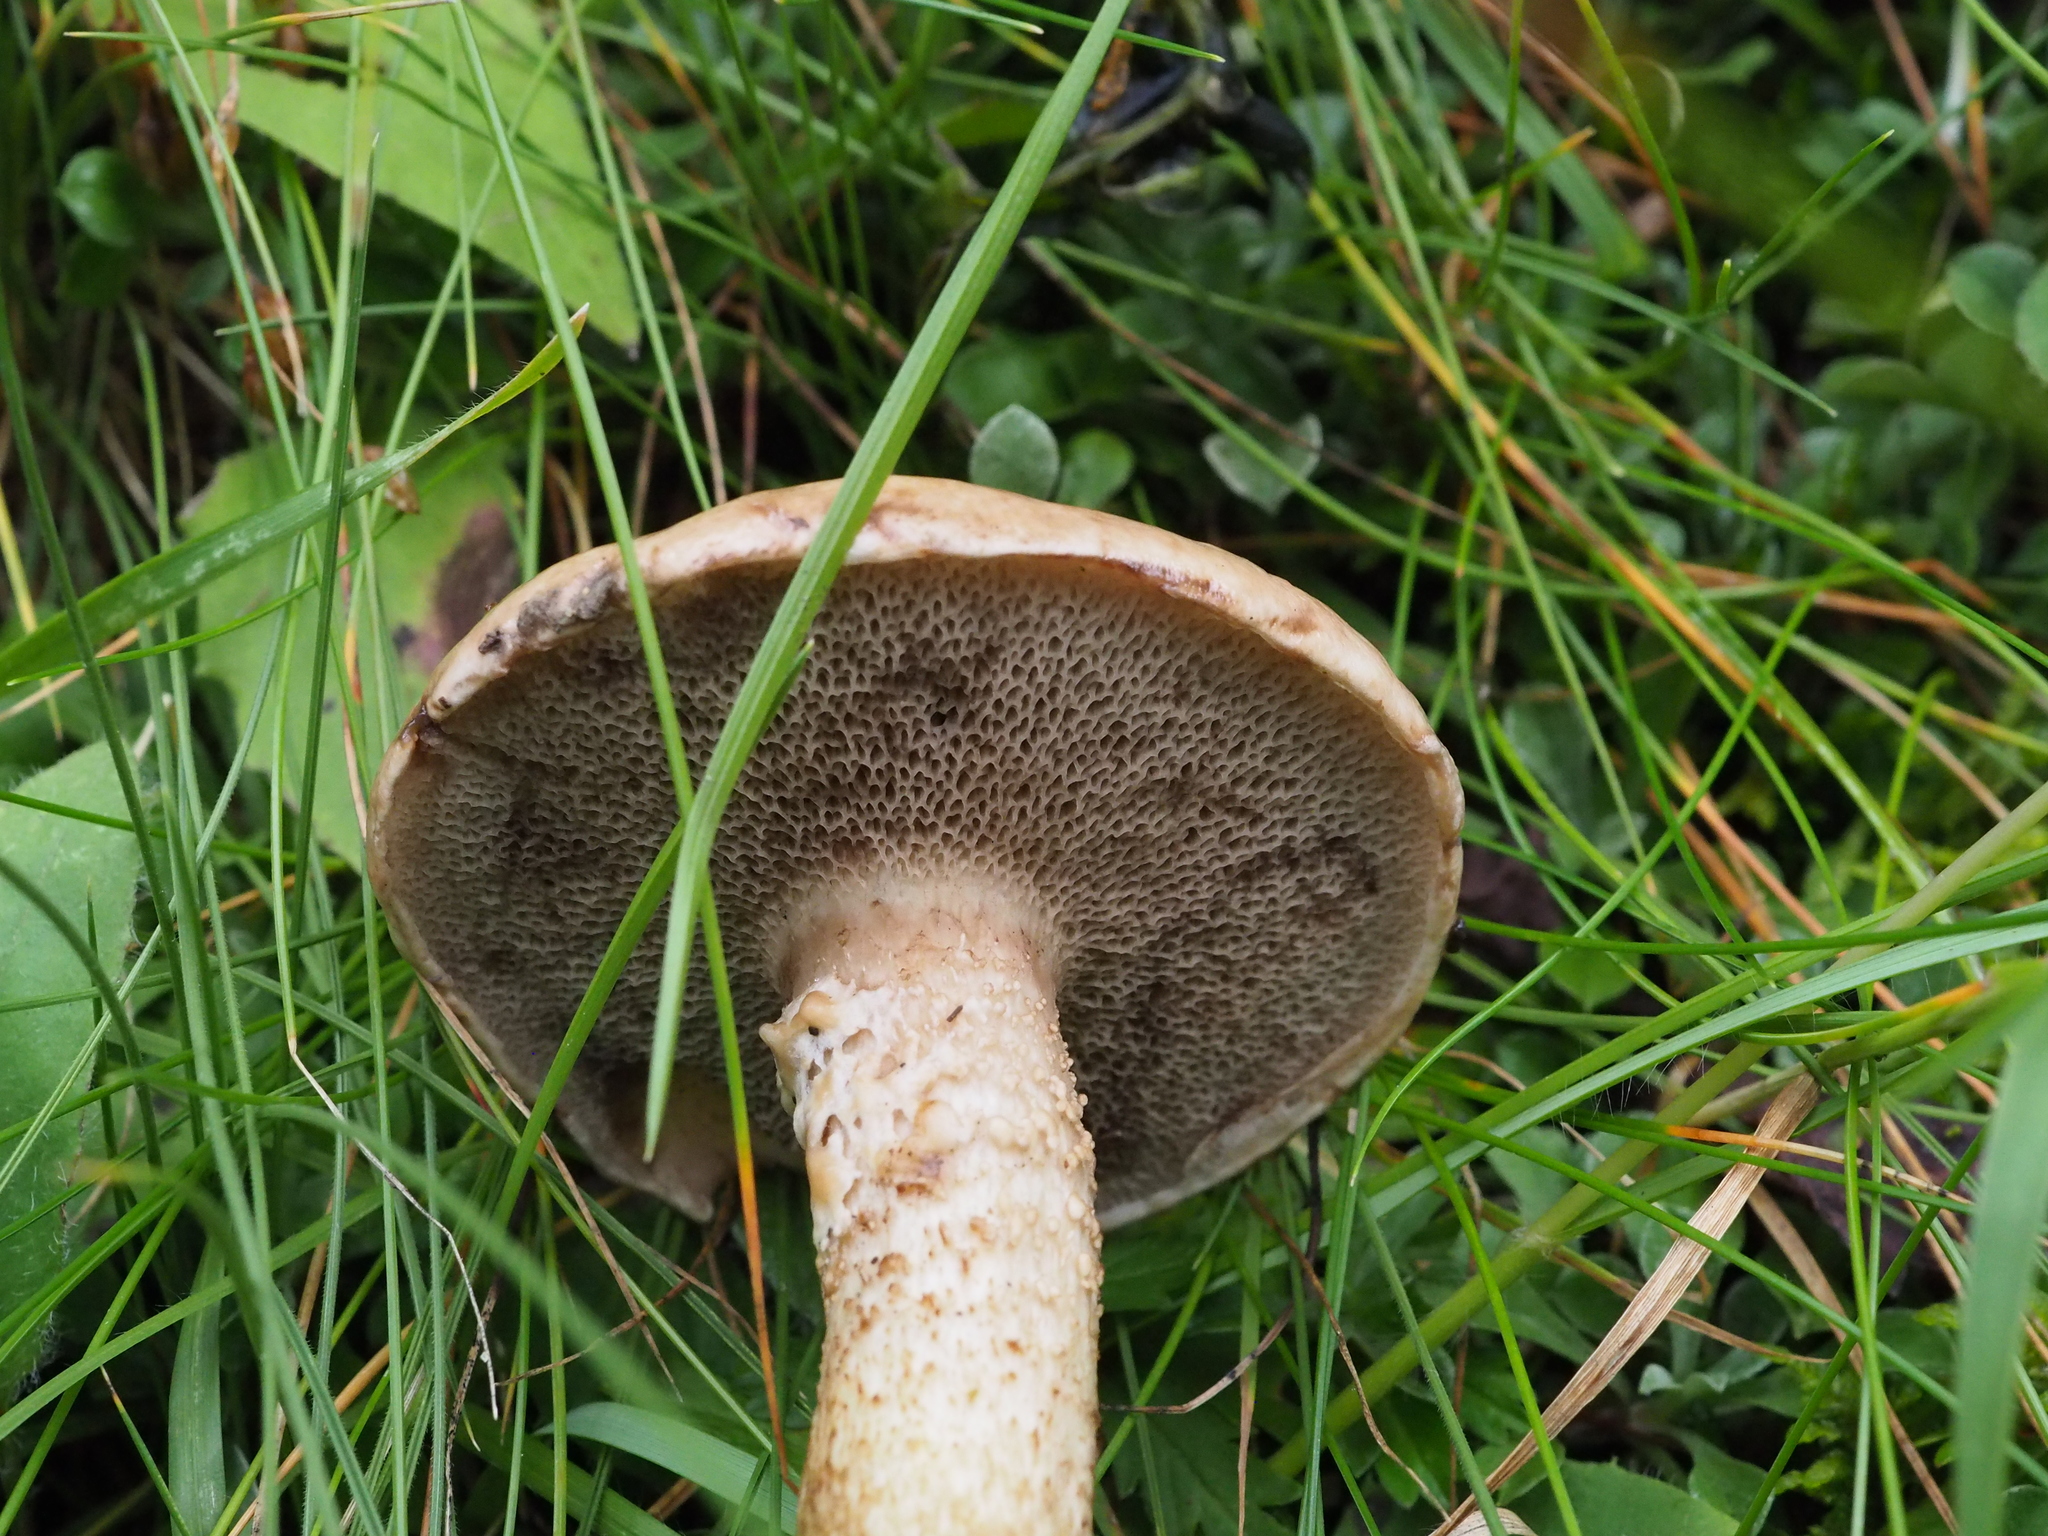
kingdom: Fungi
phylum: Basidiomycota
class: Agaricomycetes
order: Boletales
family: Suillaceae
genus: Suillus
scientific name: Suillus viscidus
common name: Sticky bolete
